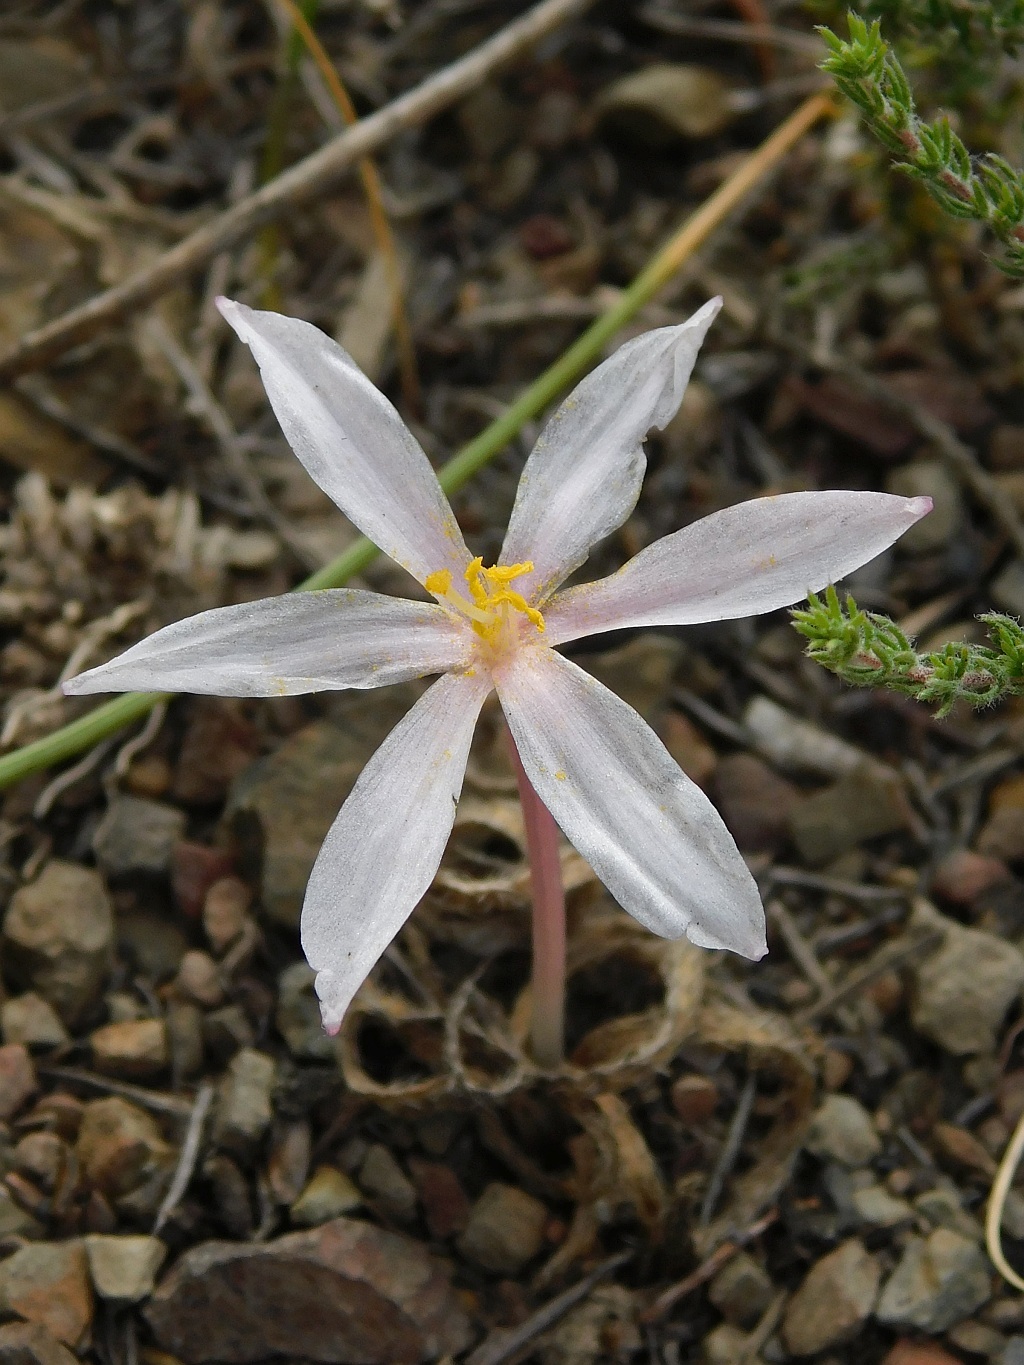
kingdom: Plantae
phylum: Tracheophyta
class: Liliopsida
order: Asparagales
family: Amaryllidaceae
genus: Gethyllis
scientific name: Gethyllis villosa
